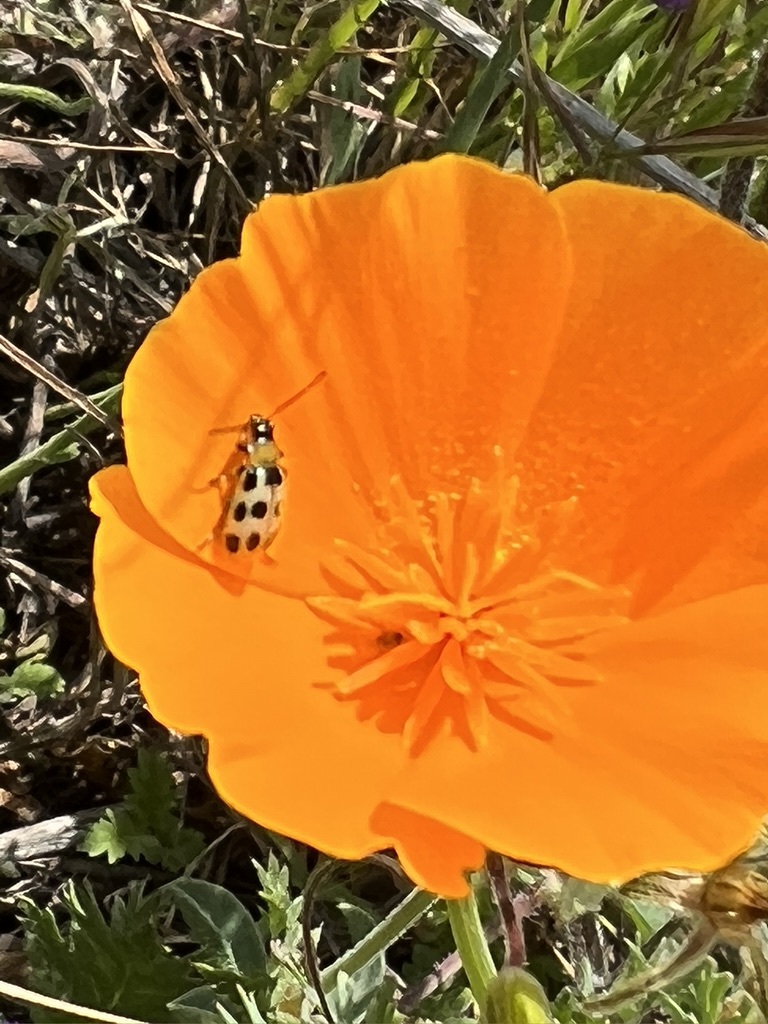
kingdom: Animalia
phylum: Arthropoda
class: Insecta
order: Coleoptera
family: Chrysomelidae
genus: Diabrotica
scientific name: Diabrotica undecimpunctata
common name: Spotted cucumber beetle
